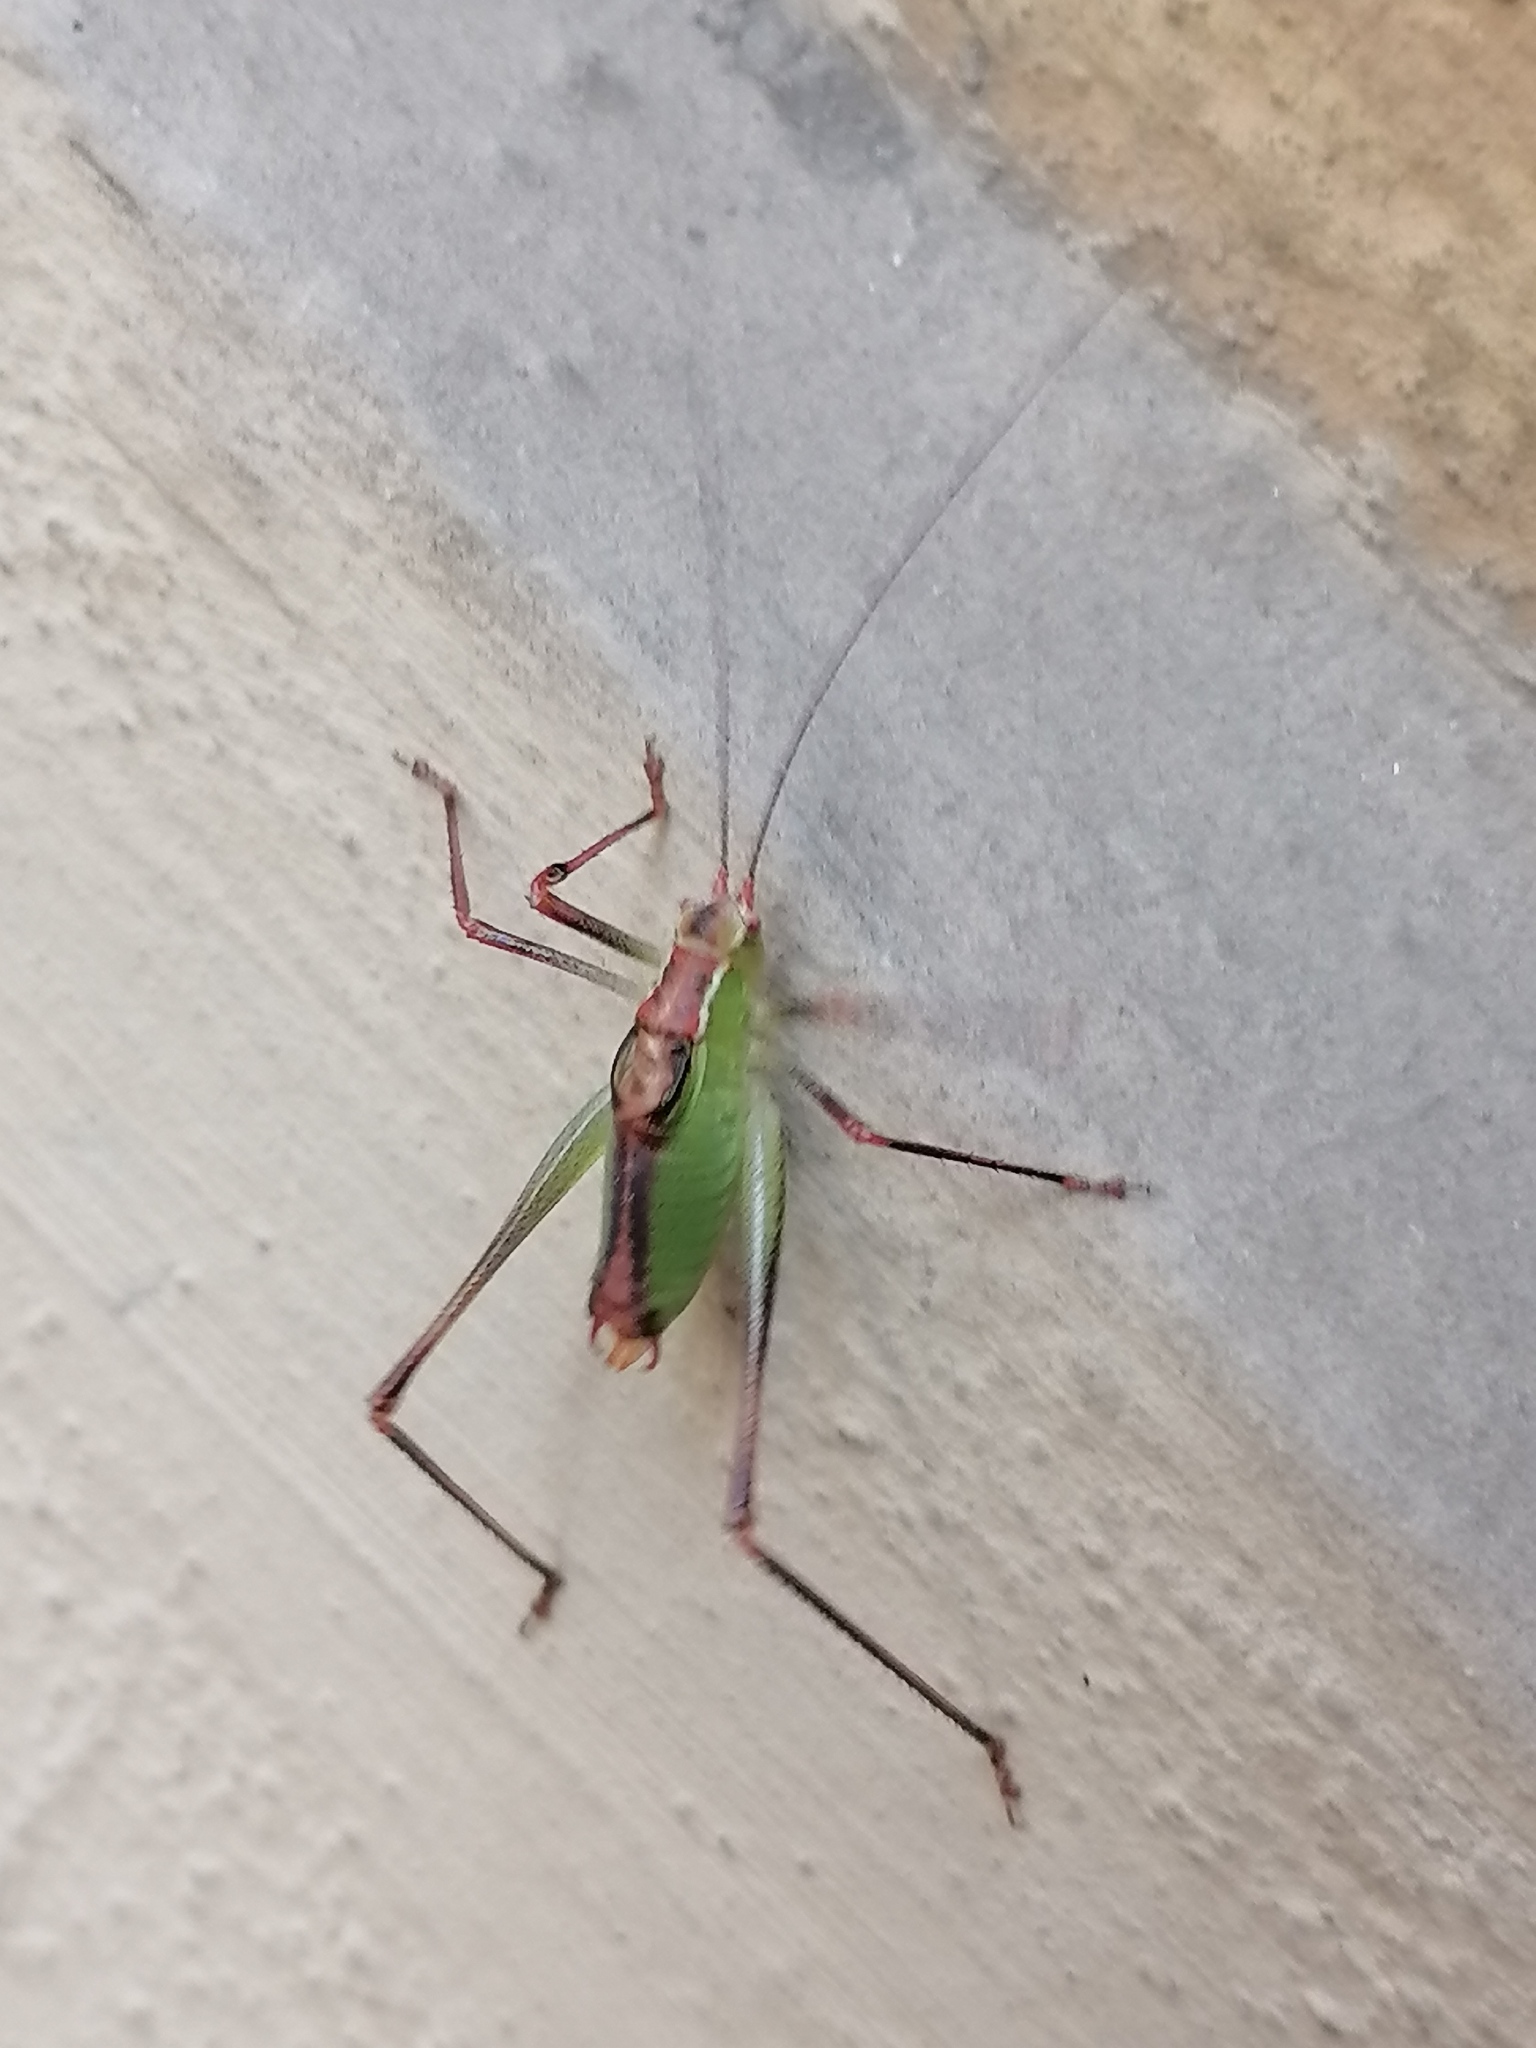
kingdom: Animalia
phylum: Arthropoda
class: Insecta
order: Orthoptera
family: Tettigoniidae
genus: Leptophyes
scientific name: Leptophyes punctatissima
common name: Speckled bush-cricket
